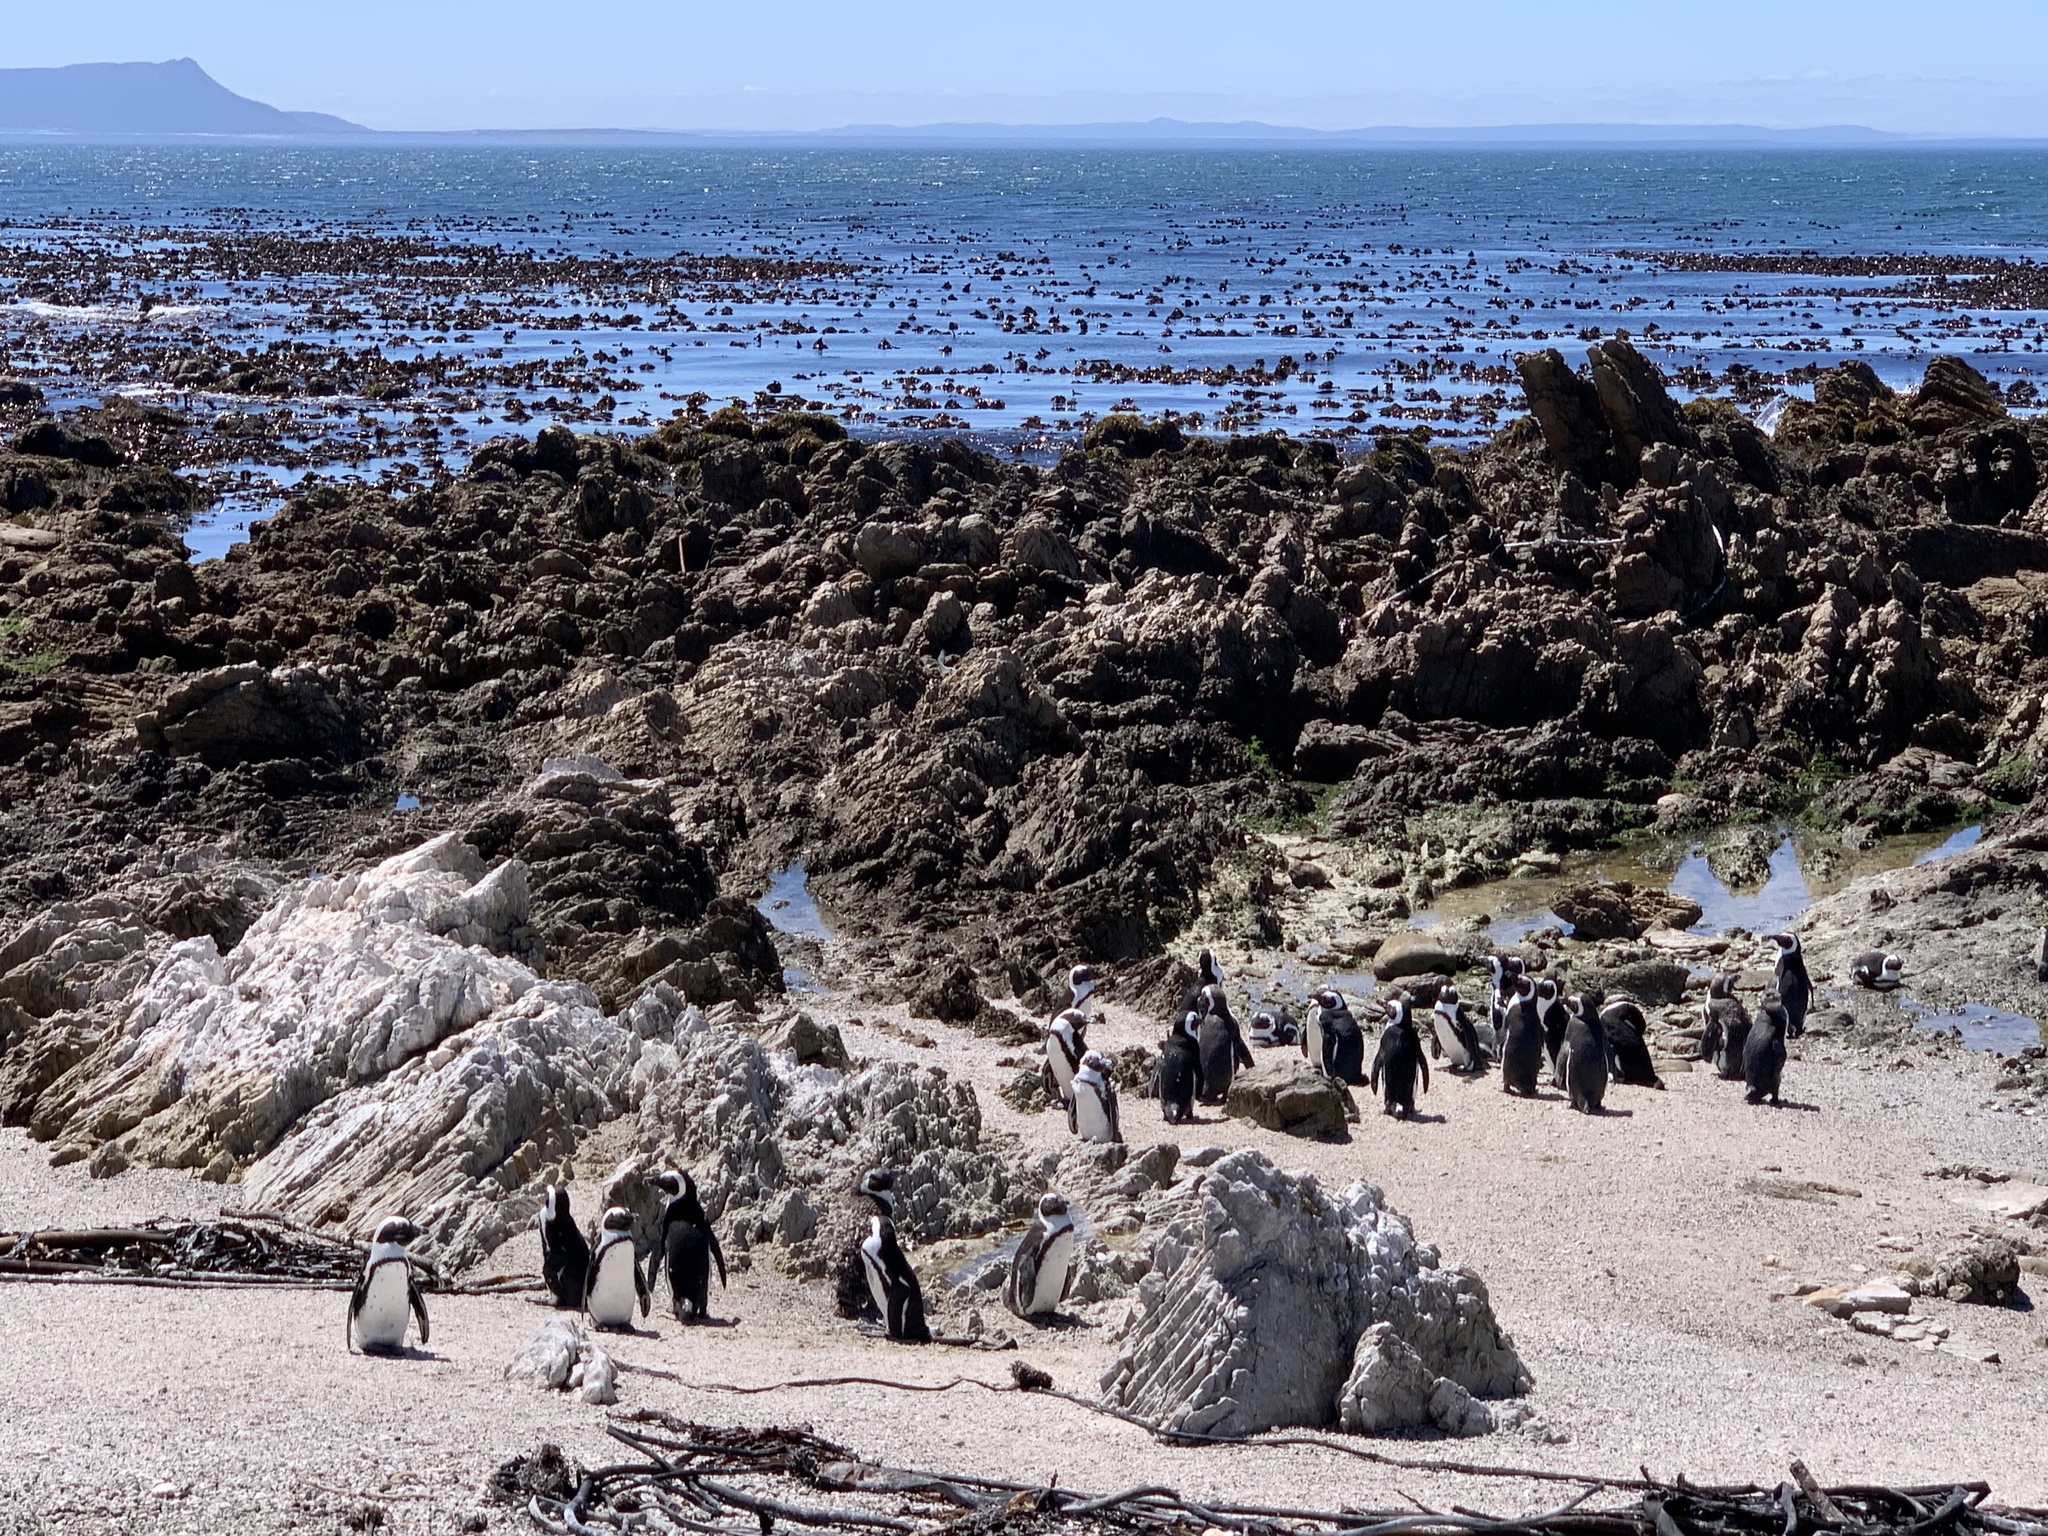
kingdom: Animalia
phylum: Chordata
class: Aves
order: Sphenisciformes
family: Spheniscidae
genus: Spheniscus
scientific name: Spheniscus demersus
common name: African penguin
